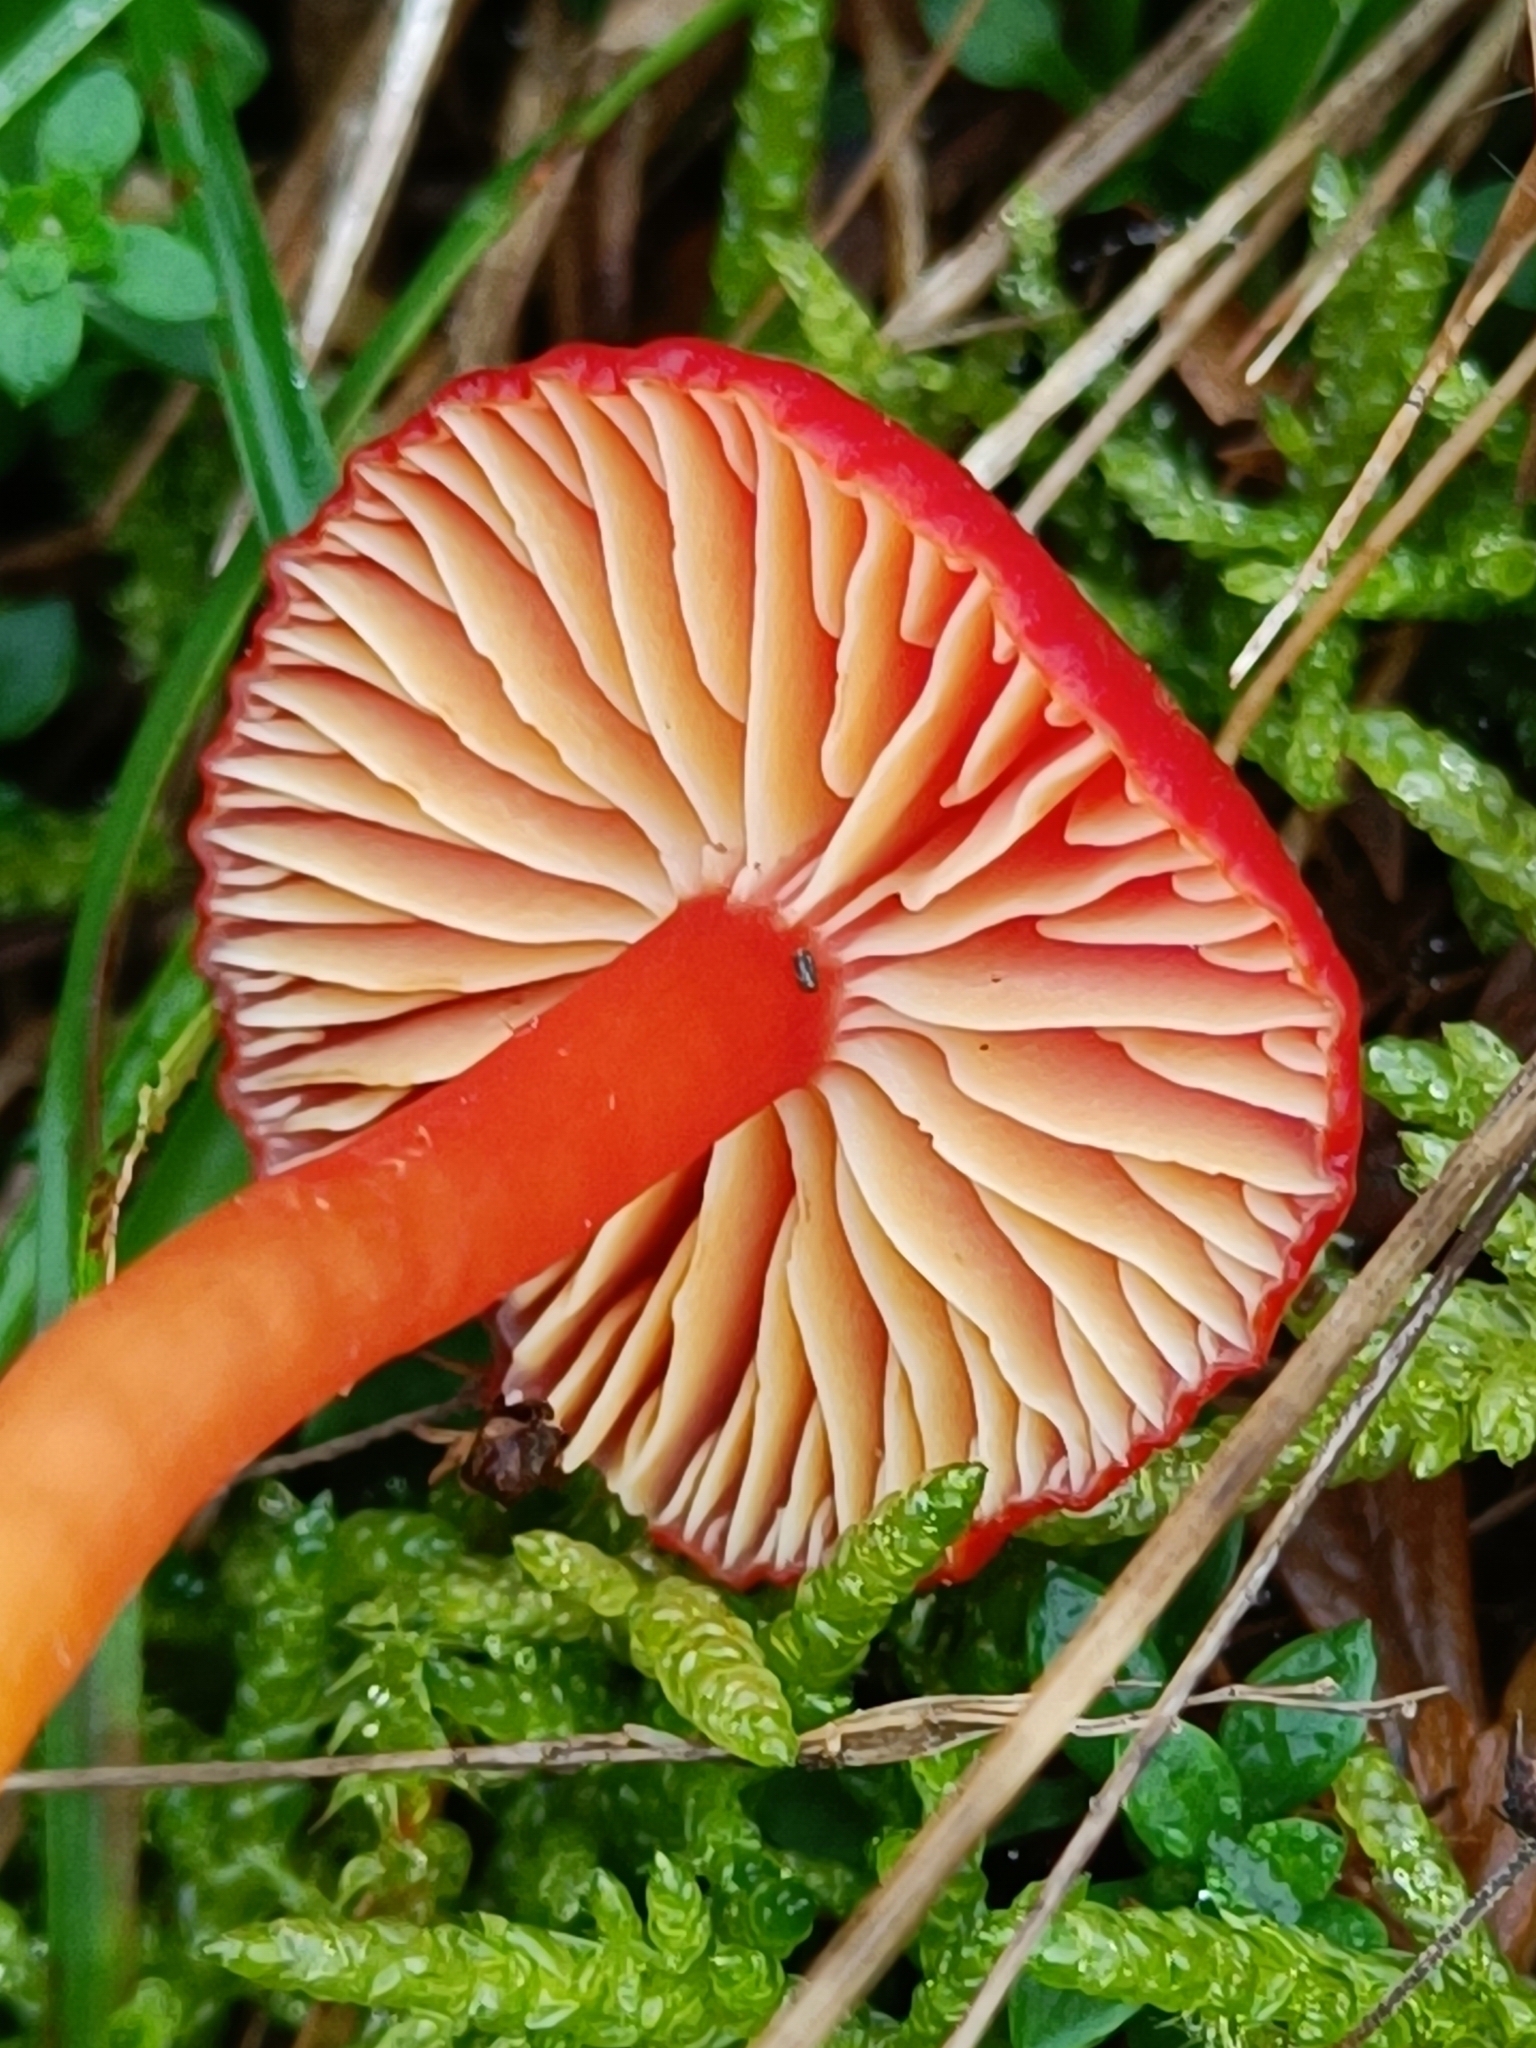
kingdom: Fungi
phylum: Basidiomycota
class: Agaricomycetes
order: Agaricales
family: Hygrophoraceae
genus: Hygrocybe
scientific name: Hygrocybe coccinea
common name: Scarlet hood
